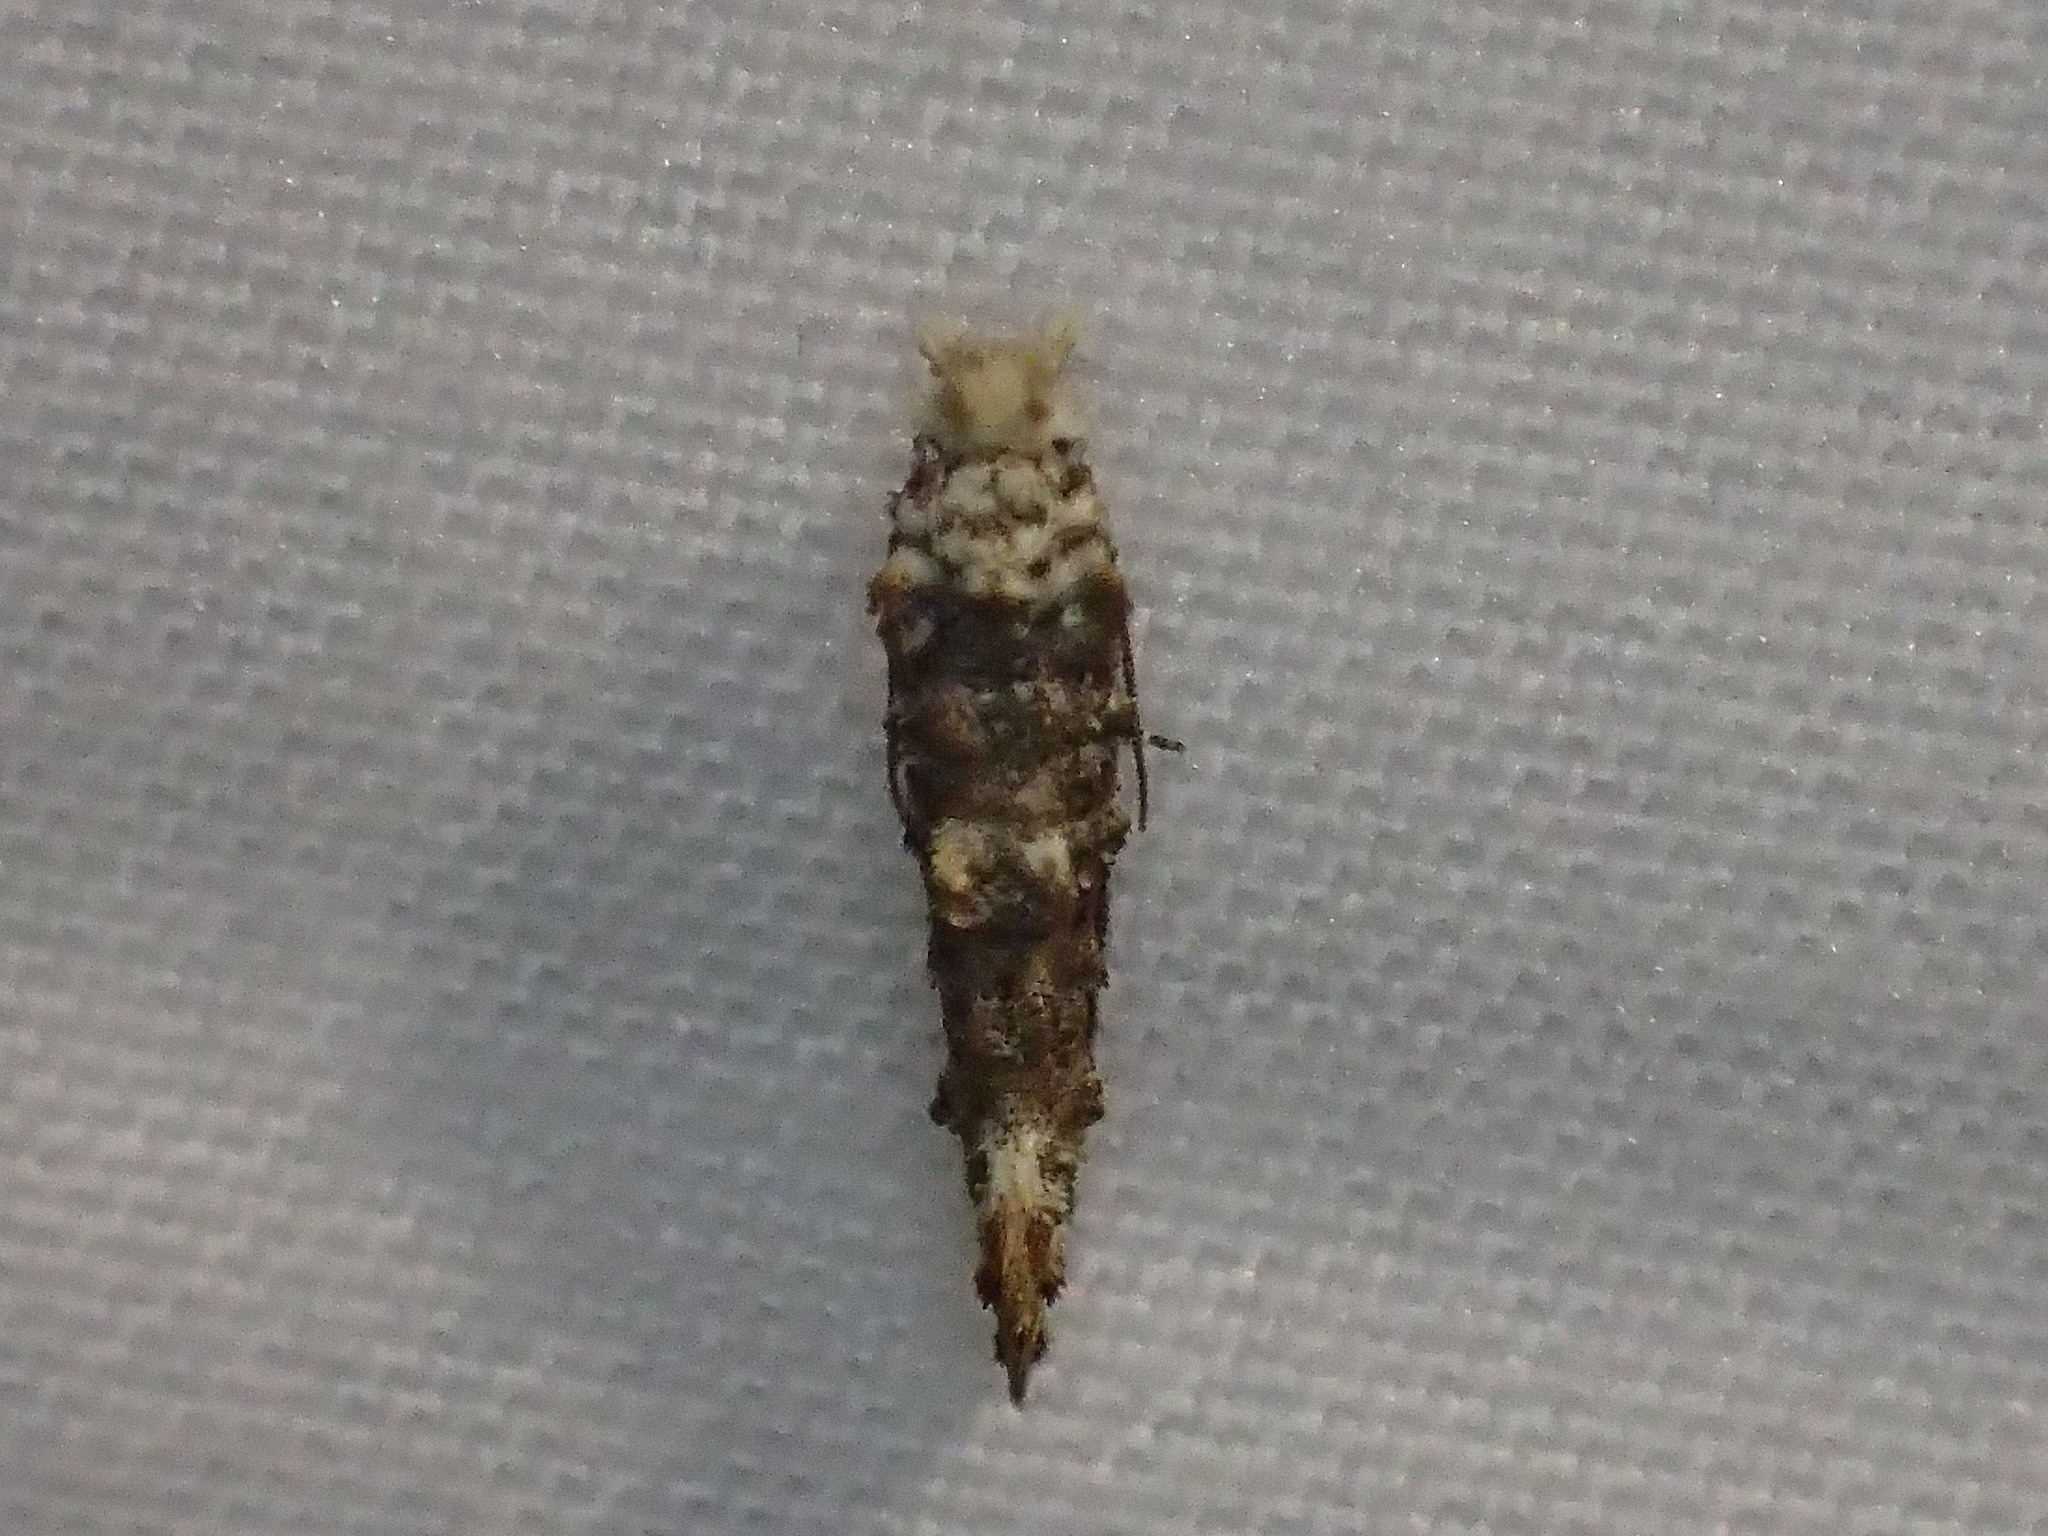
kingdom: Animalia
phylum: Arthropoda
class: Insecta
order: Lepidoptera
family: Tineidae
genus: Xylesthia
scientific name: Xylesthia pruniramiella
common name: Clemens' bark moth
